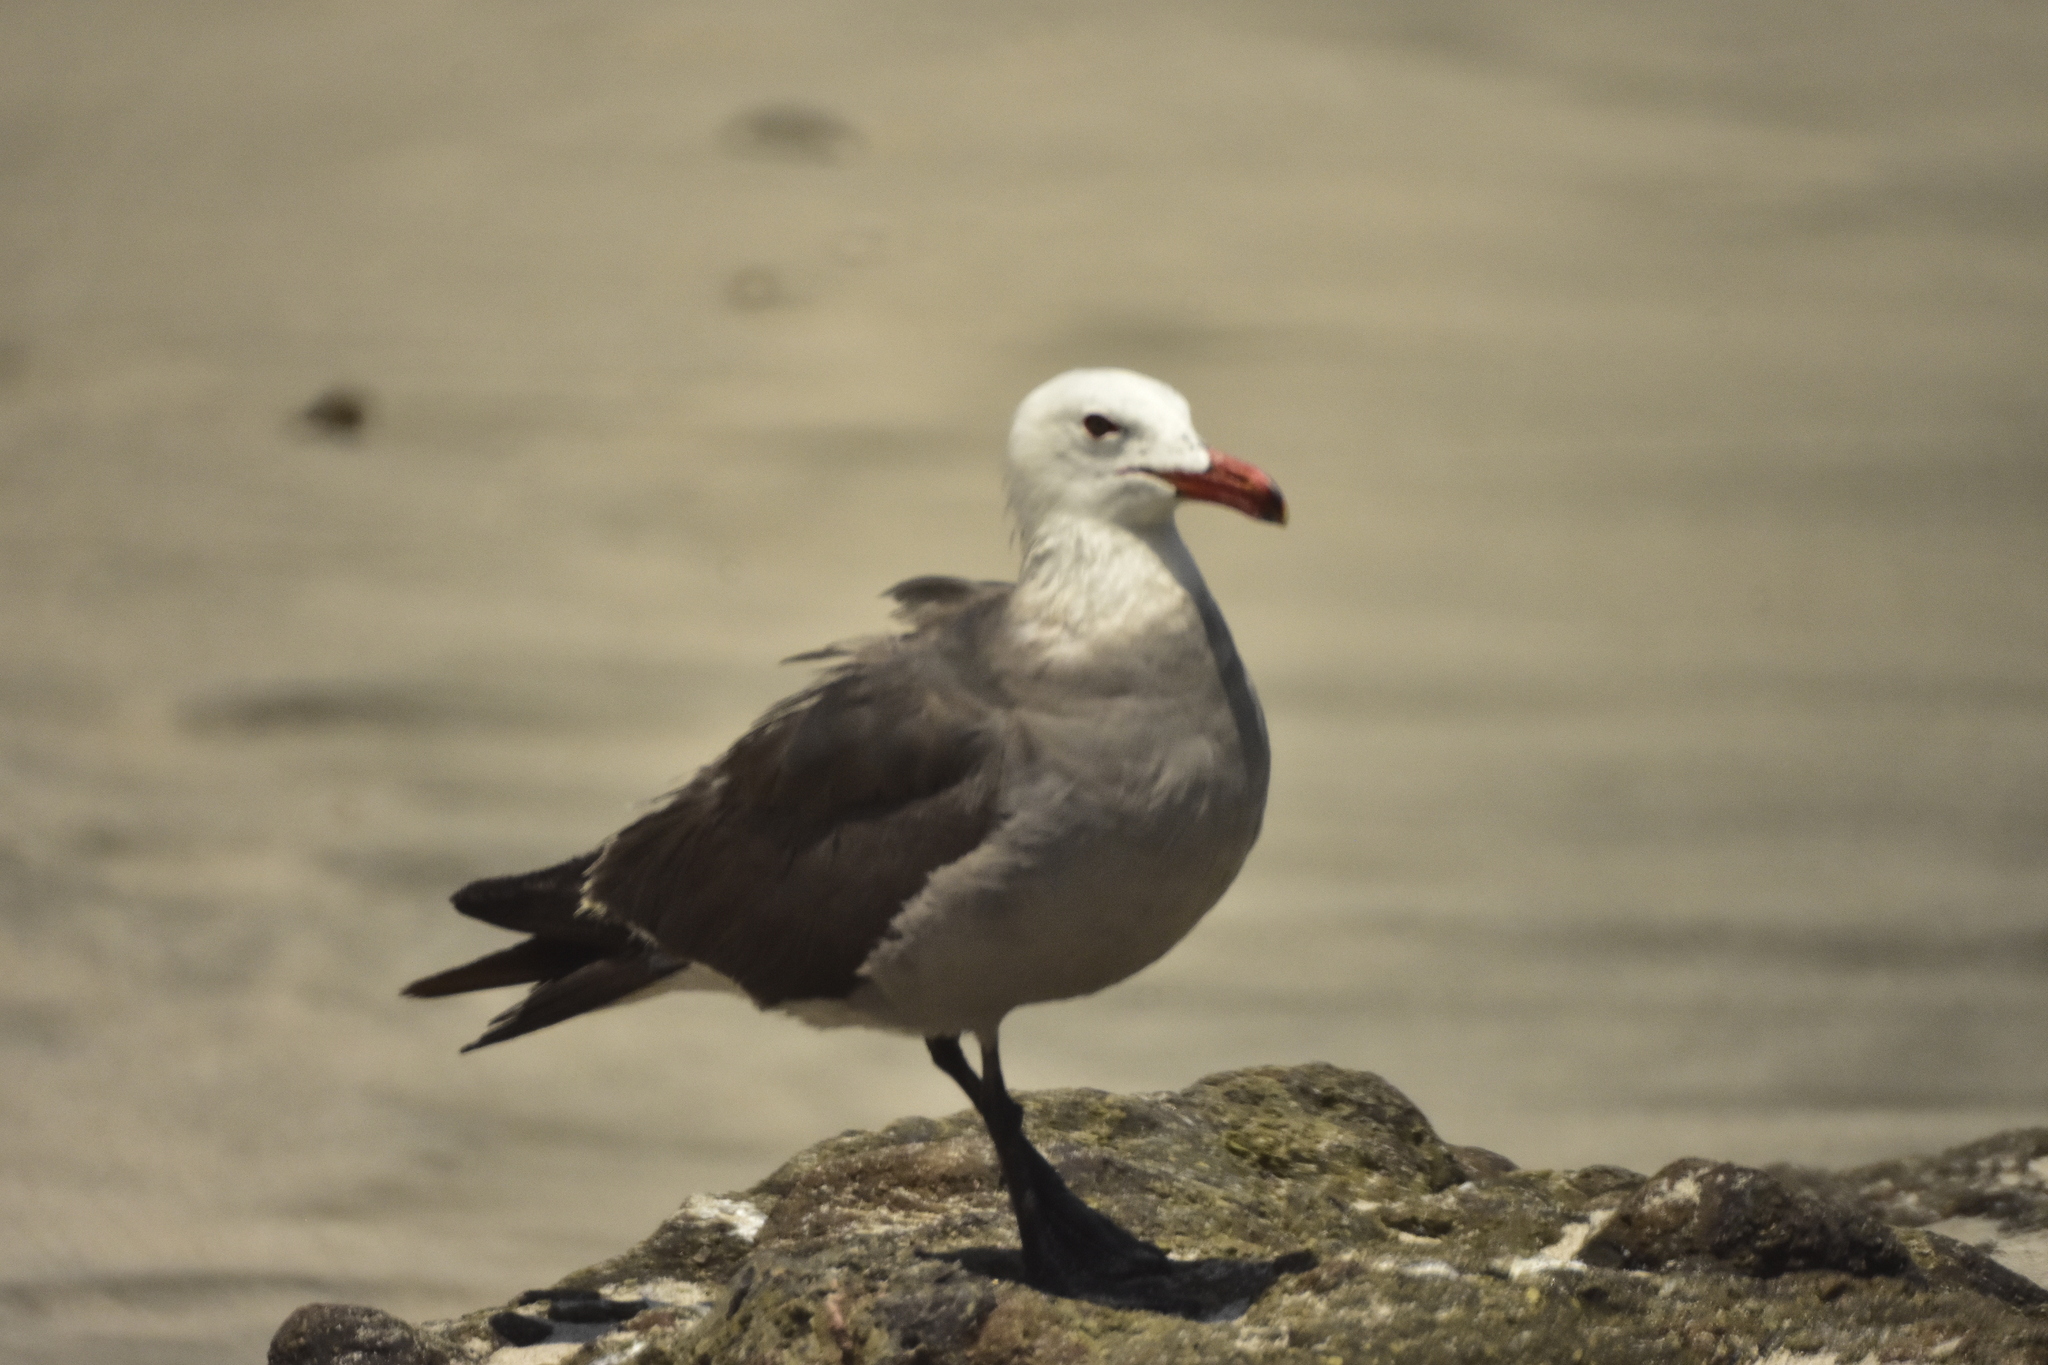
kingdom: Animalia
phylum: Chordata
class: Aves
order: Charadriiformes
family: Laridae
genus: Larus
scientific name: Larus heermanni
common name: Heermann's gull
